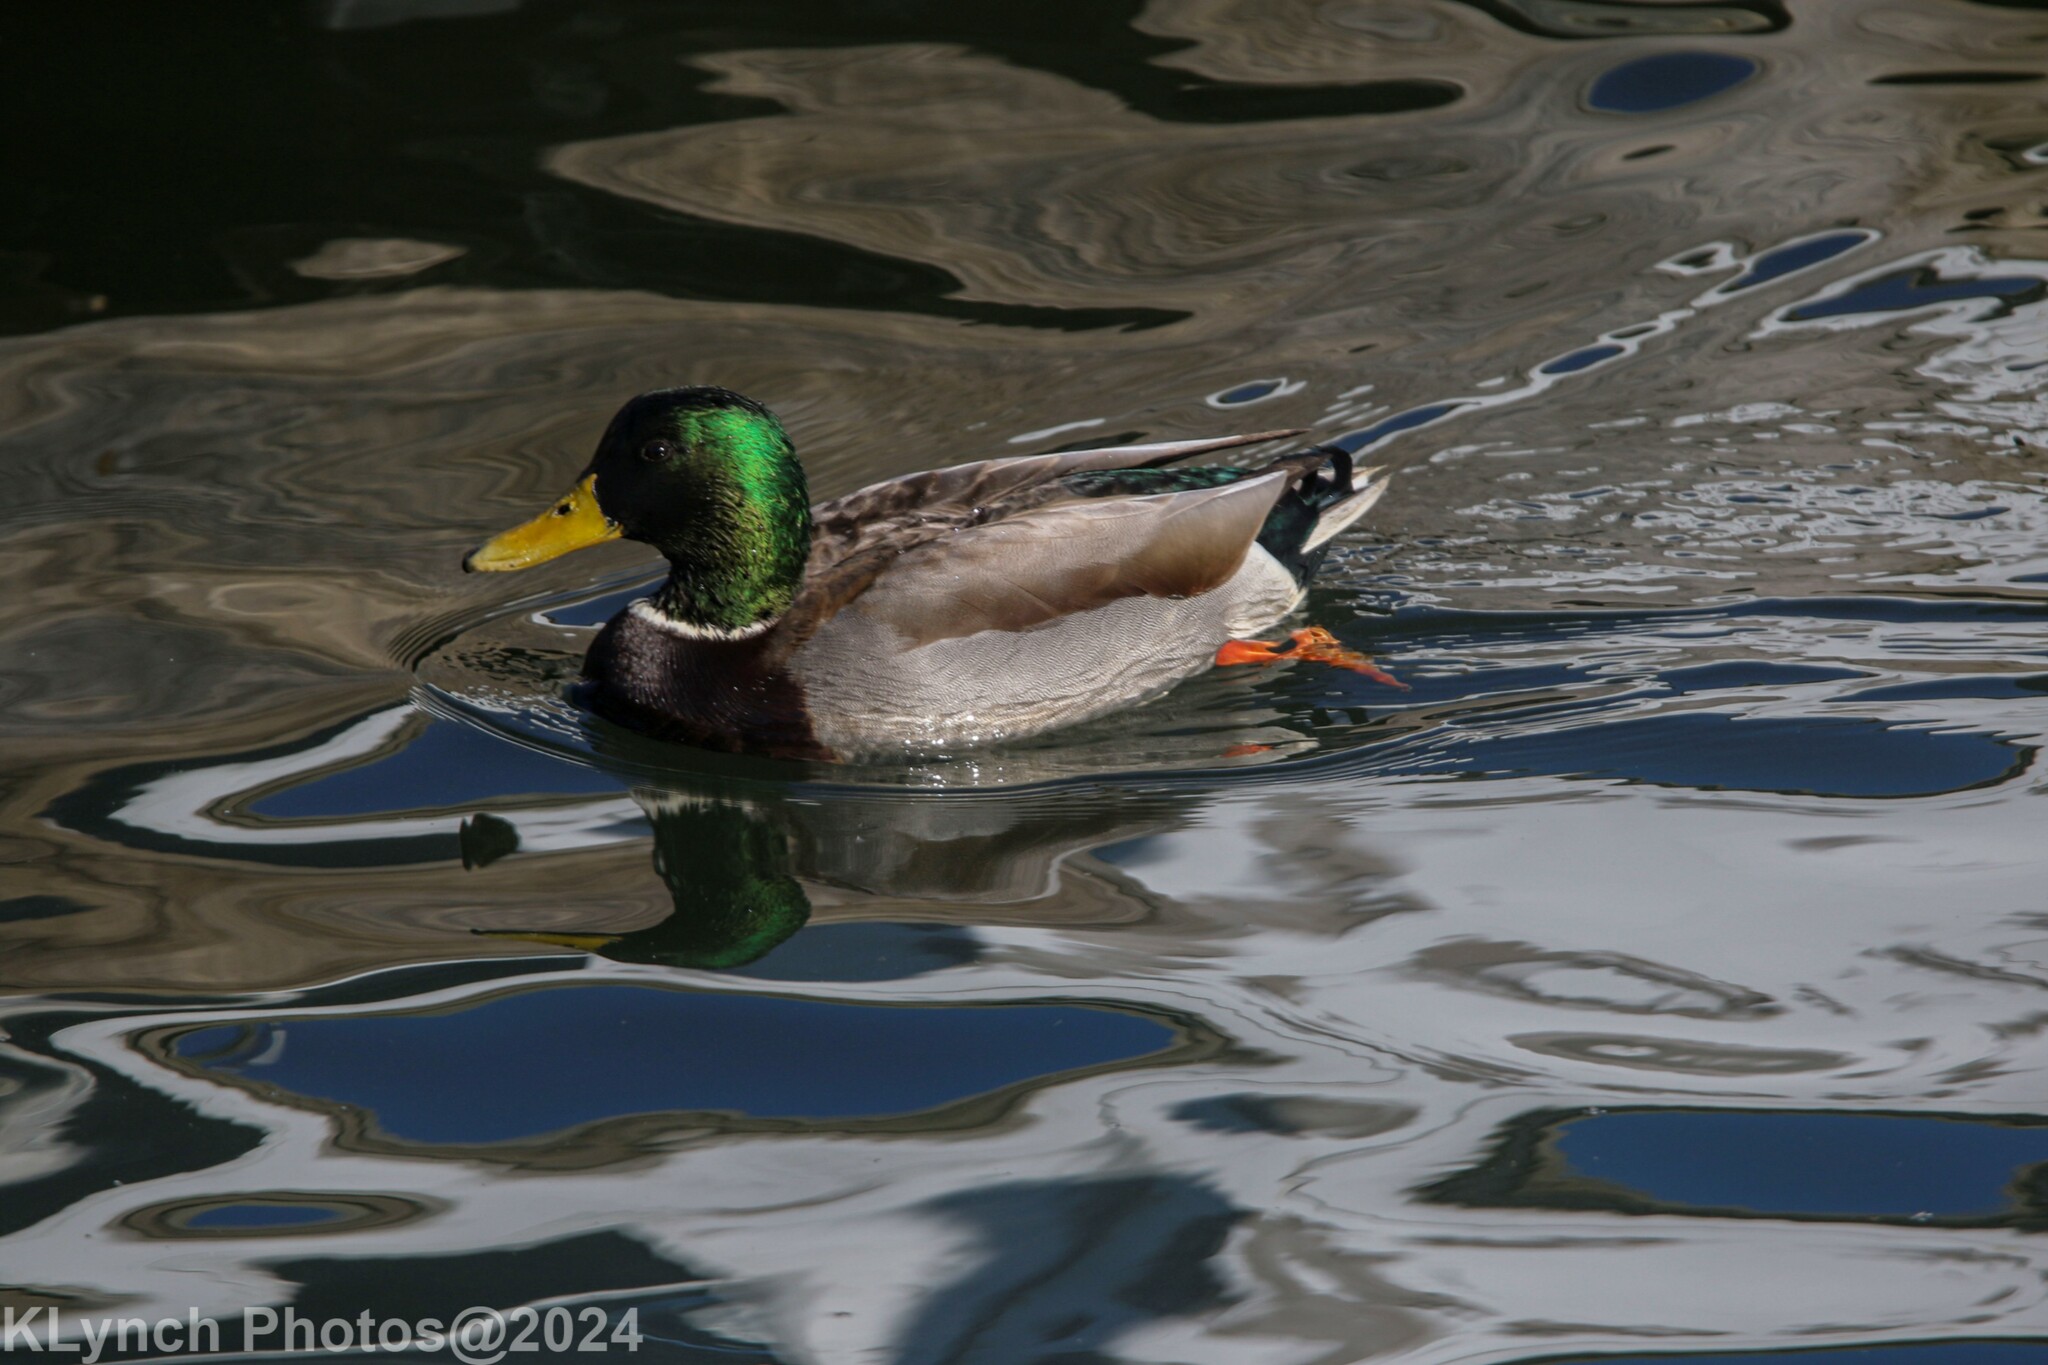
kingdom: Animalia
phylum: Chordata
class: Aves
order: Anseriformes
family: Anatidae
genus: Anas
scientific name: Anas platyrhynchos
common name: Mallard
